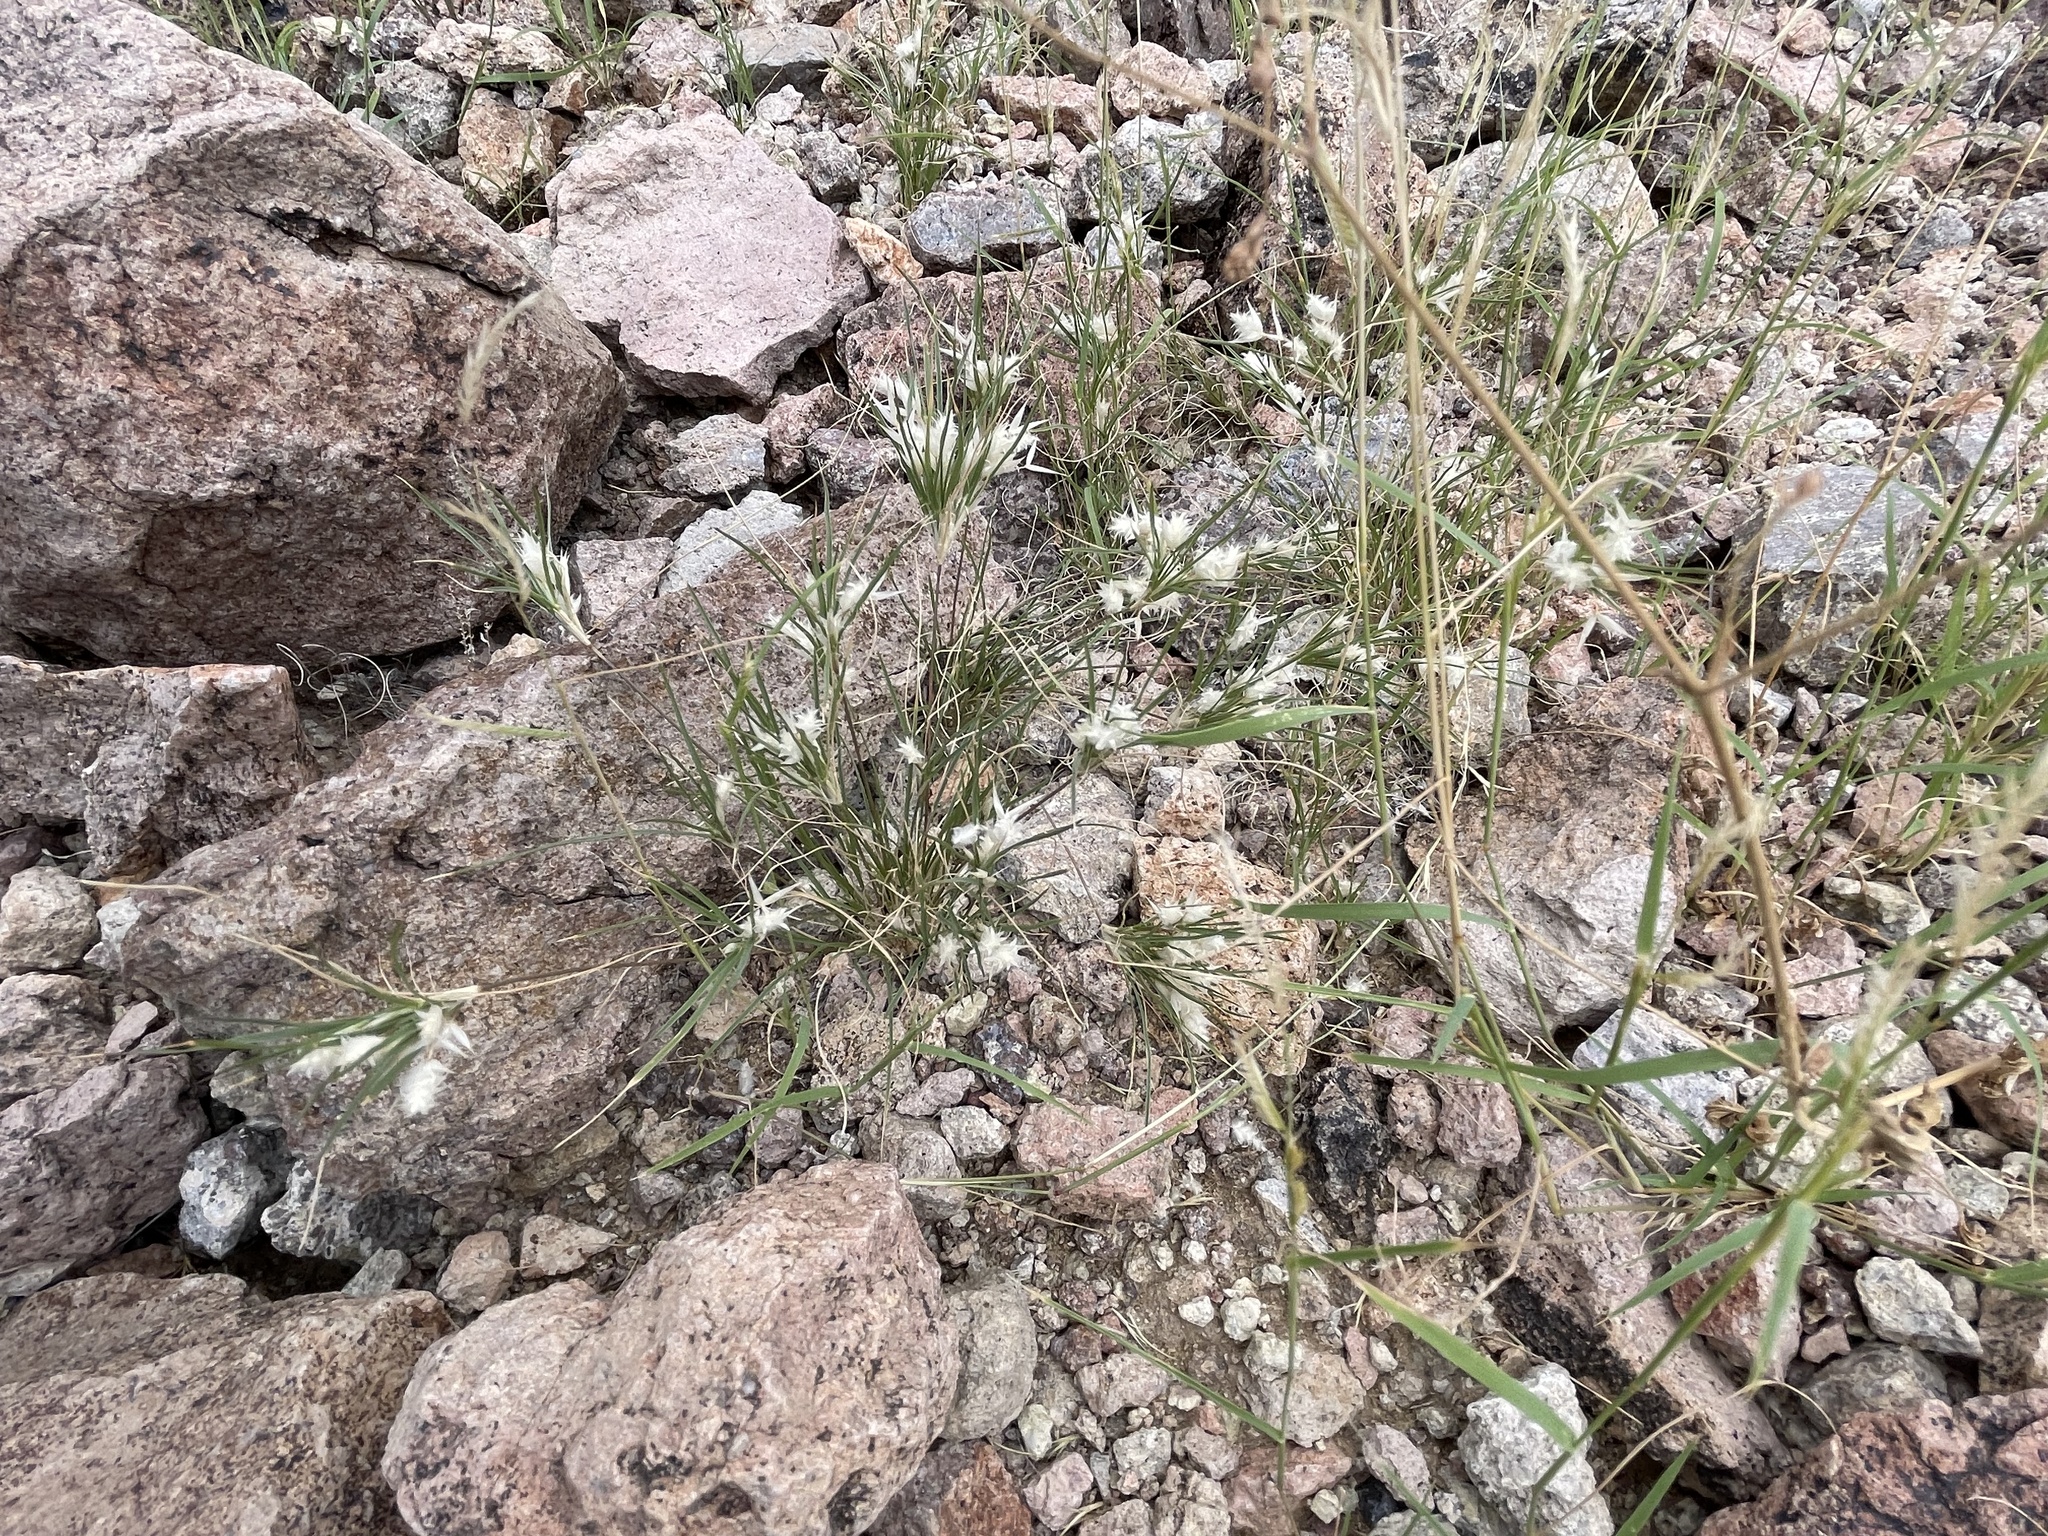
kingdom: Plantae
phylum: Tracheophyta
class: Liliopsida
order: Poales
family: Poaceae
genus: Dasyochloa
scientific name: Dasyochloa pulchella
